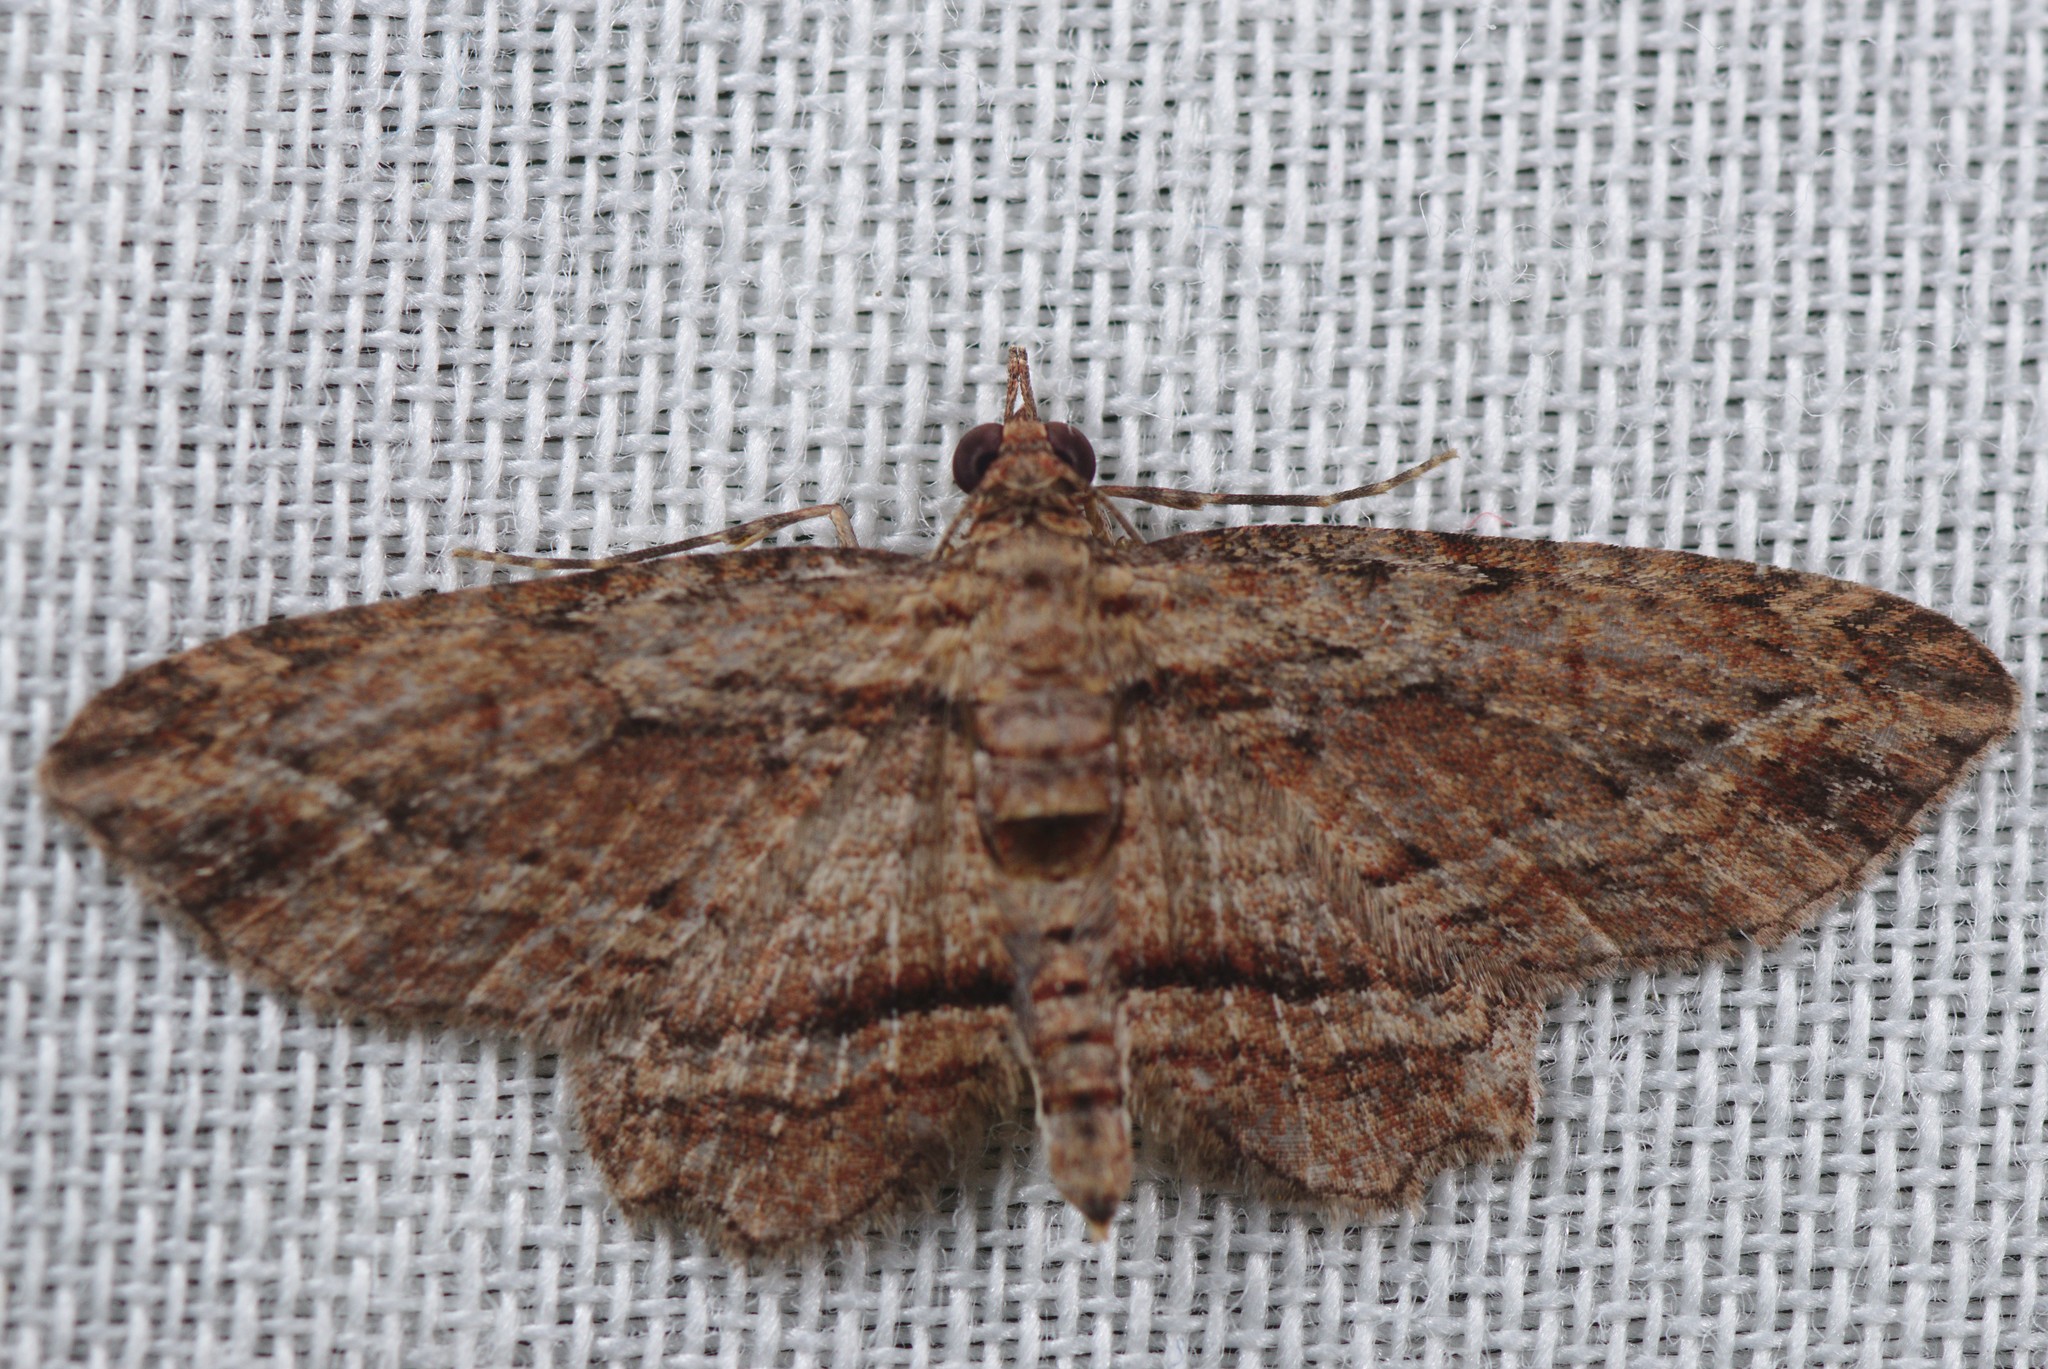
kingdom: Animalia
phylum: Arthropoda
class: Insecta
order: Lepidoptera
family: Geometridae
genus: Chloroclystis
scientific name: Chloroclystis filata
